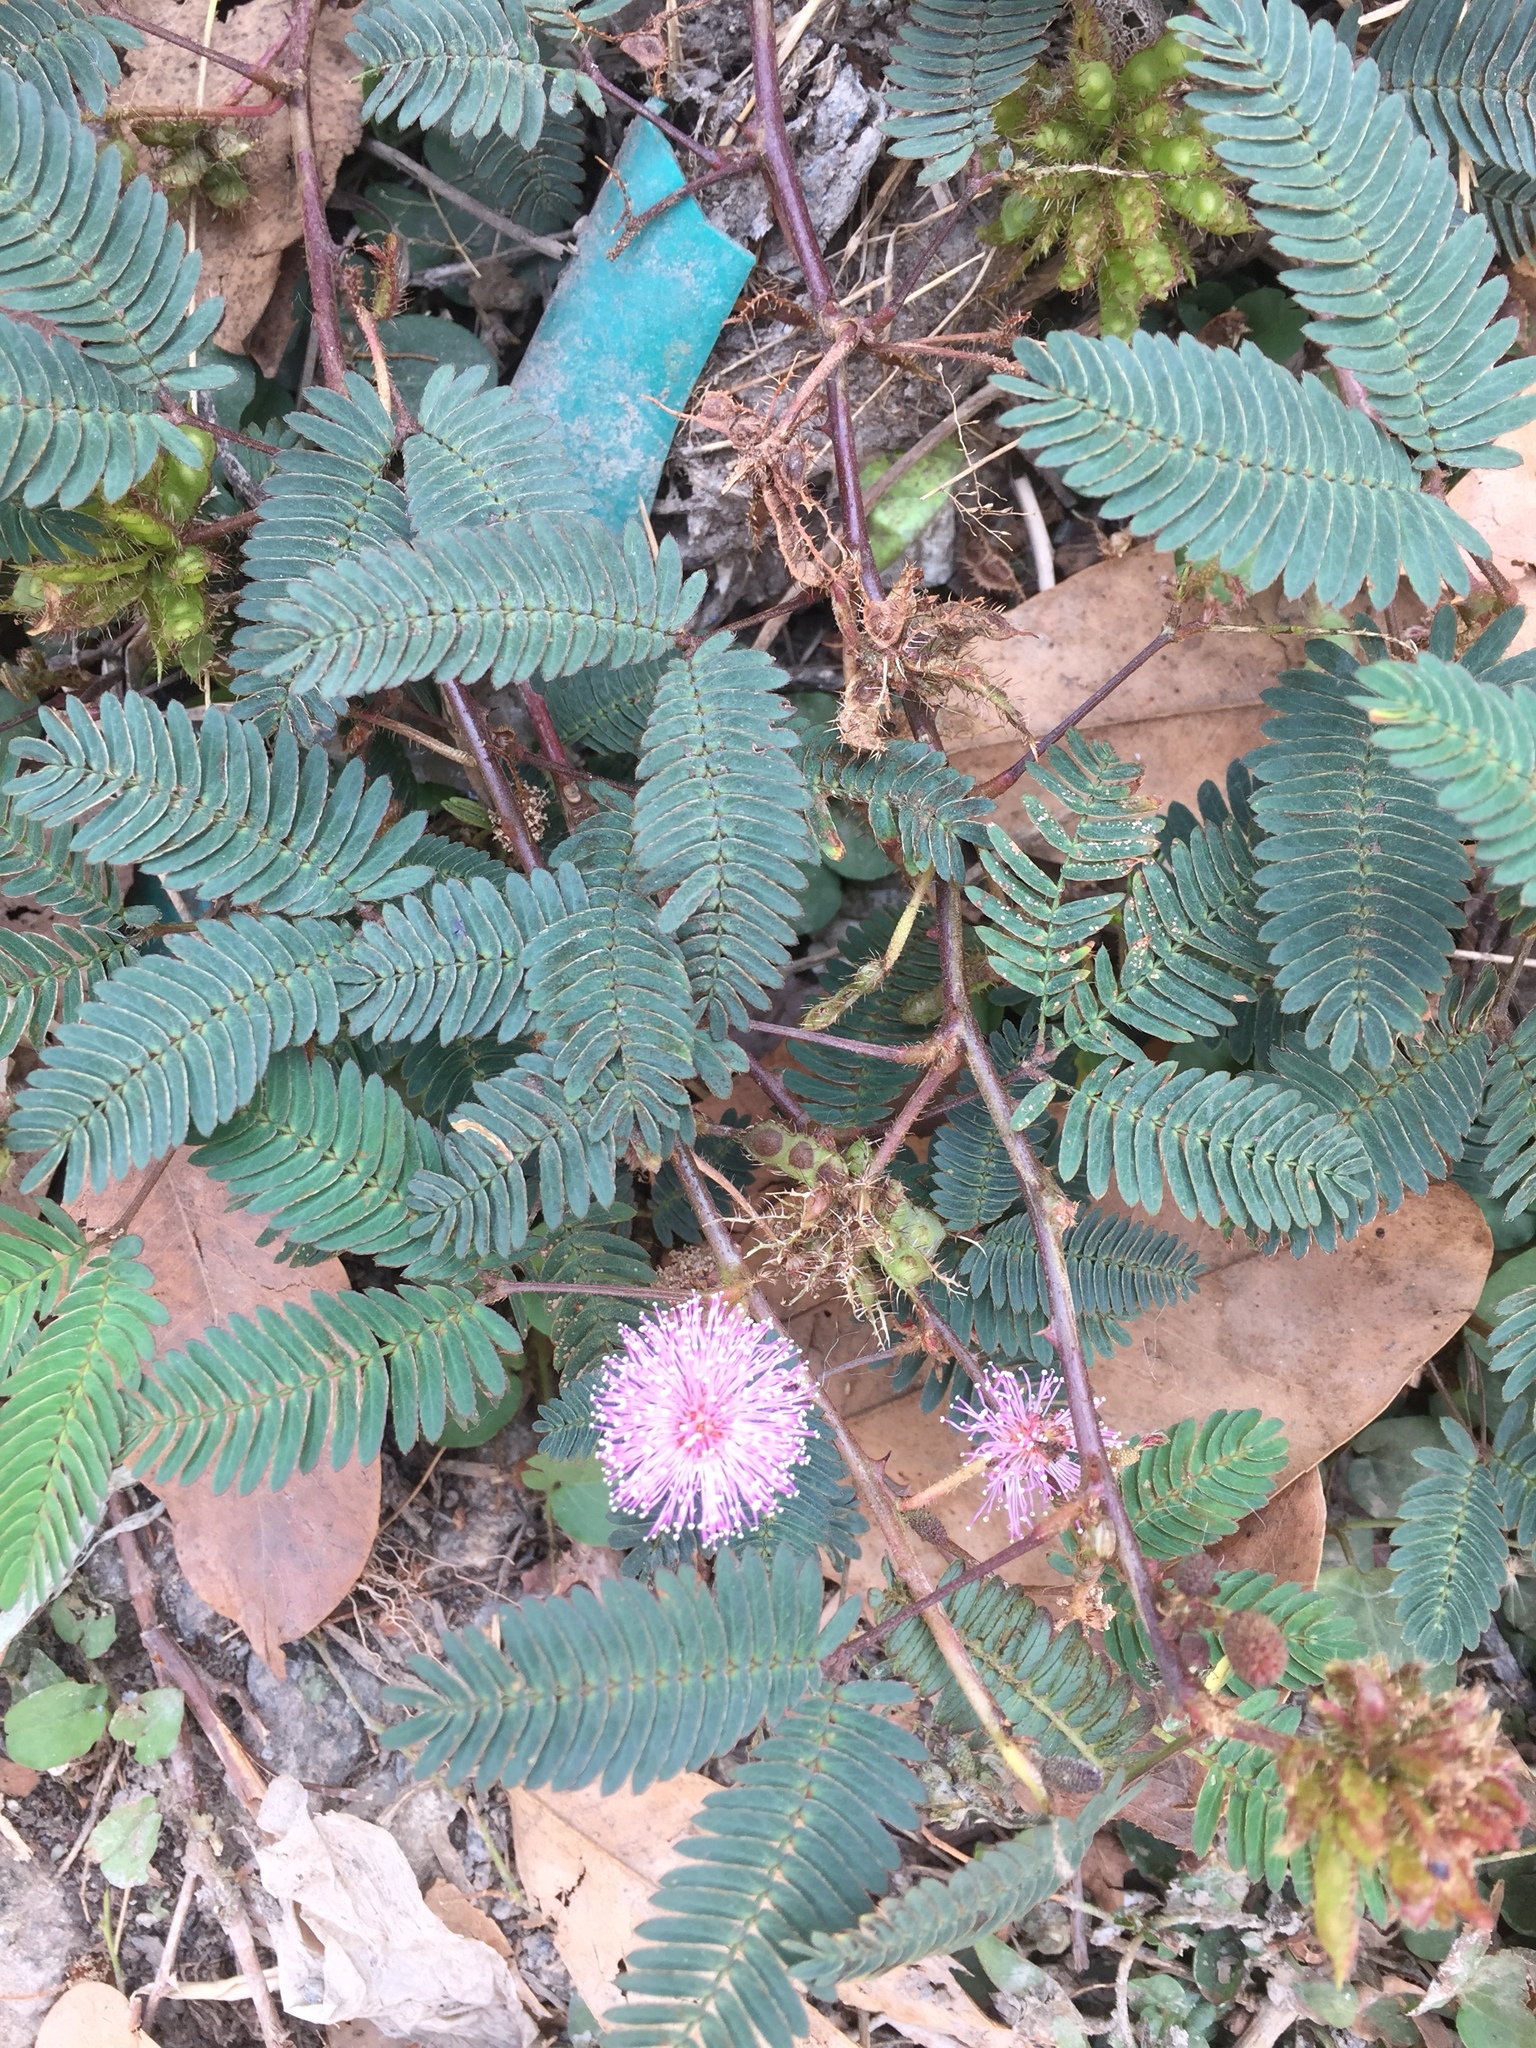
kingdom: Plantae
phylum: Tracheophyta
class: Magnoliopsida
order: Fabales
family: Fabaceae
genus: Mimosa
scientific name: Mimosa pudica
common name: Sensitive plant
